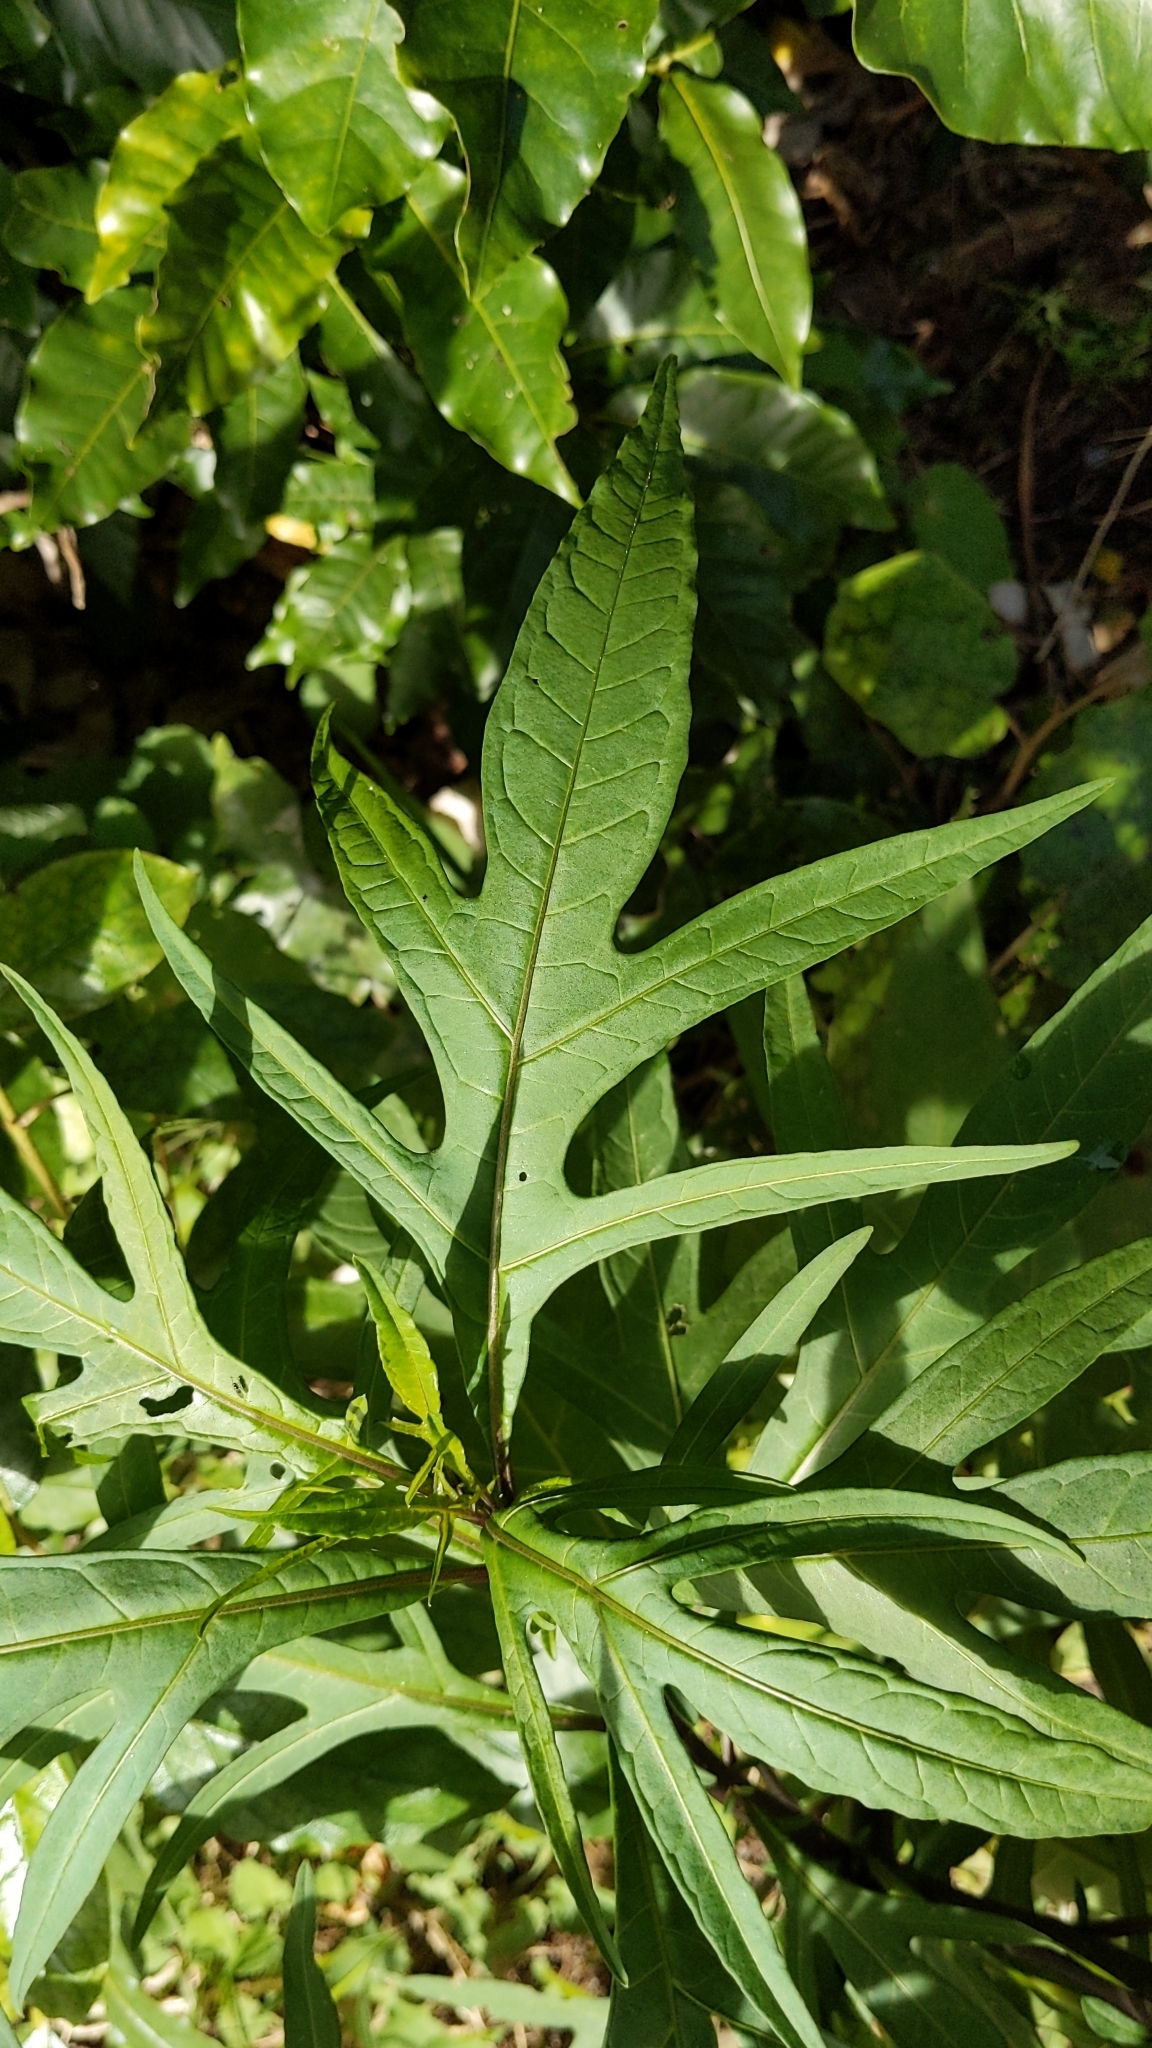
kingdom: Plantae
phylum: Tracheophyta
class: Magnoliopsida
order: Solanales
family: Solanaceae
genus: Solanum
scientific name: Solanum
